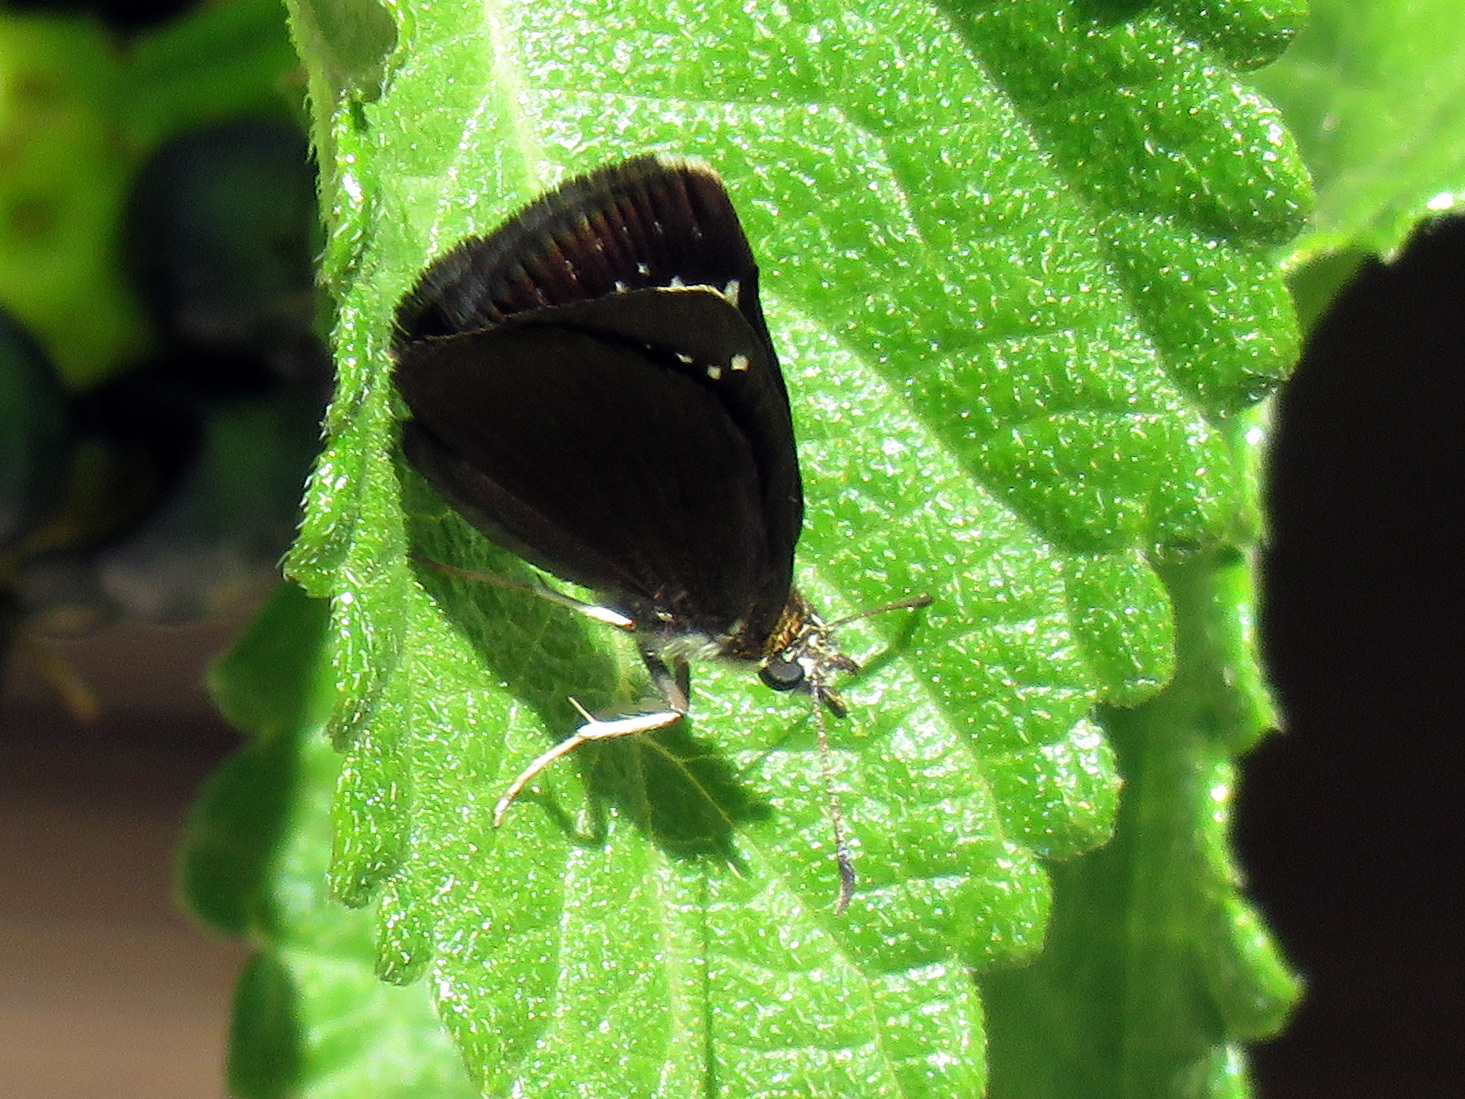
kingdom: Animalia
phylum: Arthropoda
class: Insecta
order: Lepidoptera
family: Hesperiidae
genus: Pholisora
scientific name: Pholisora catullus
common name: Common sootywing
